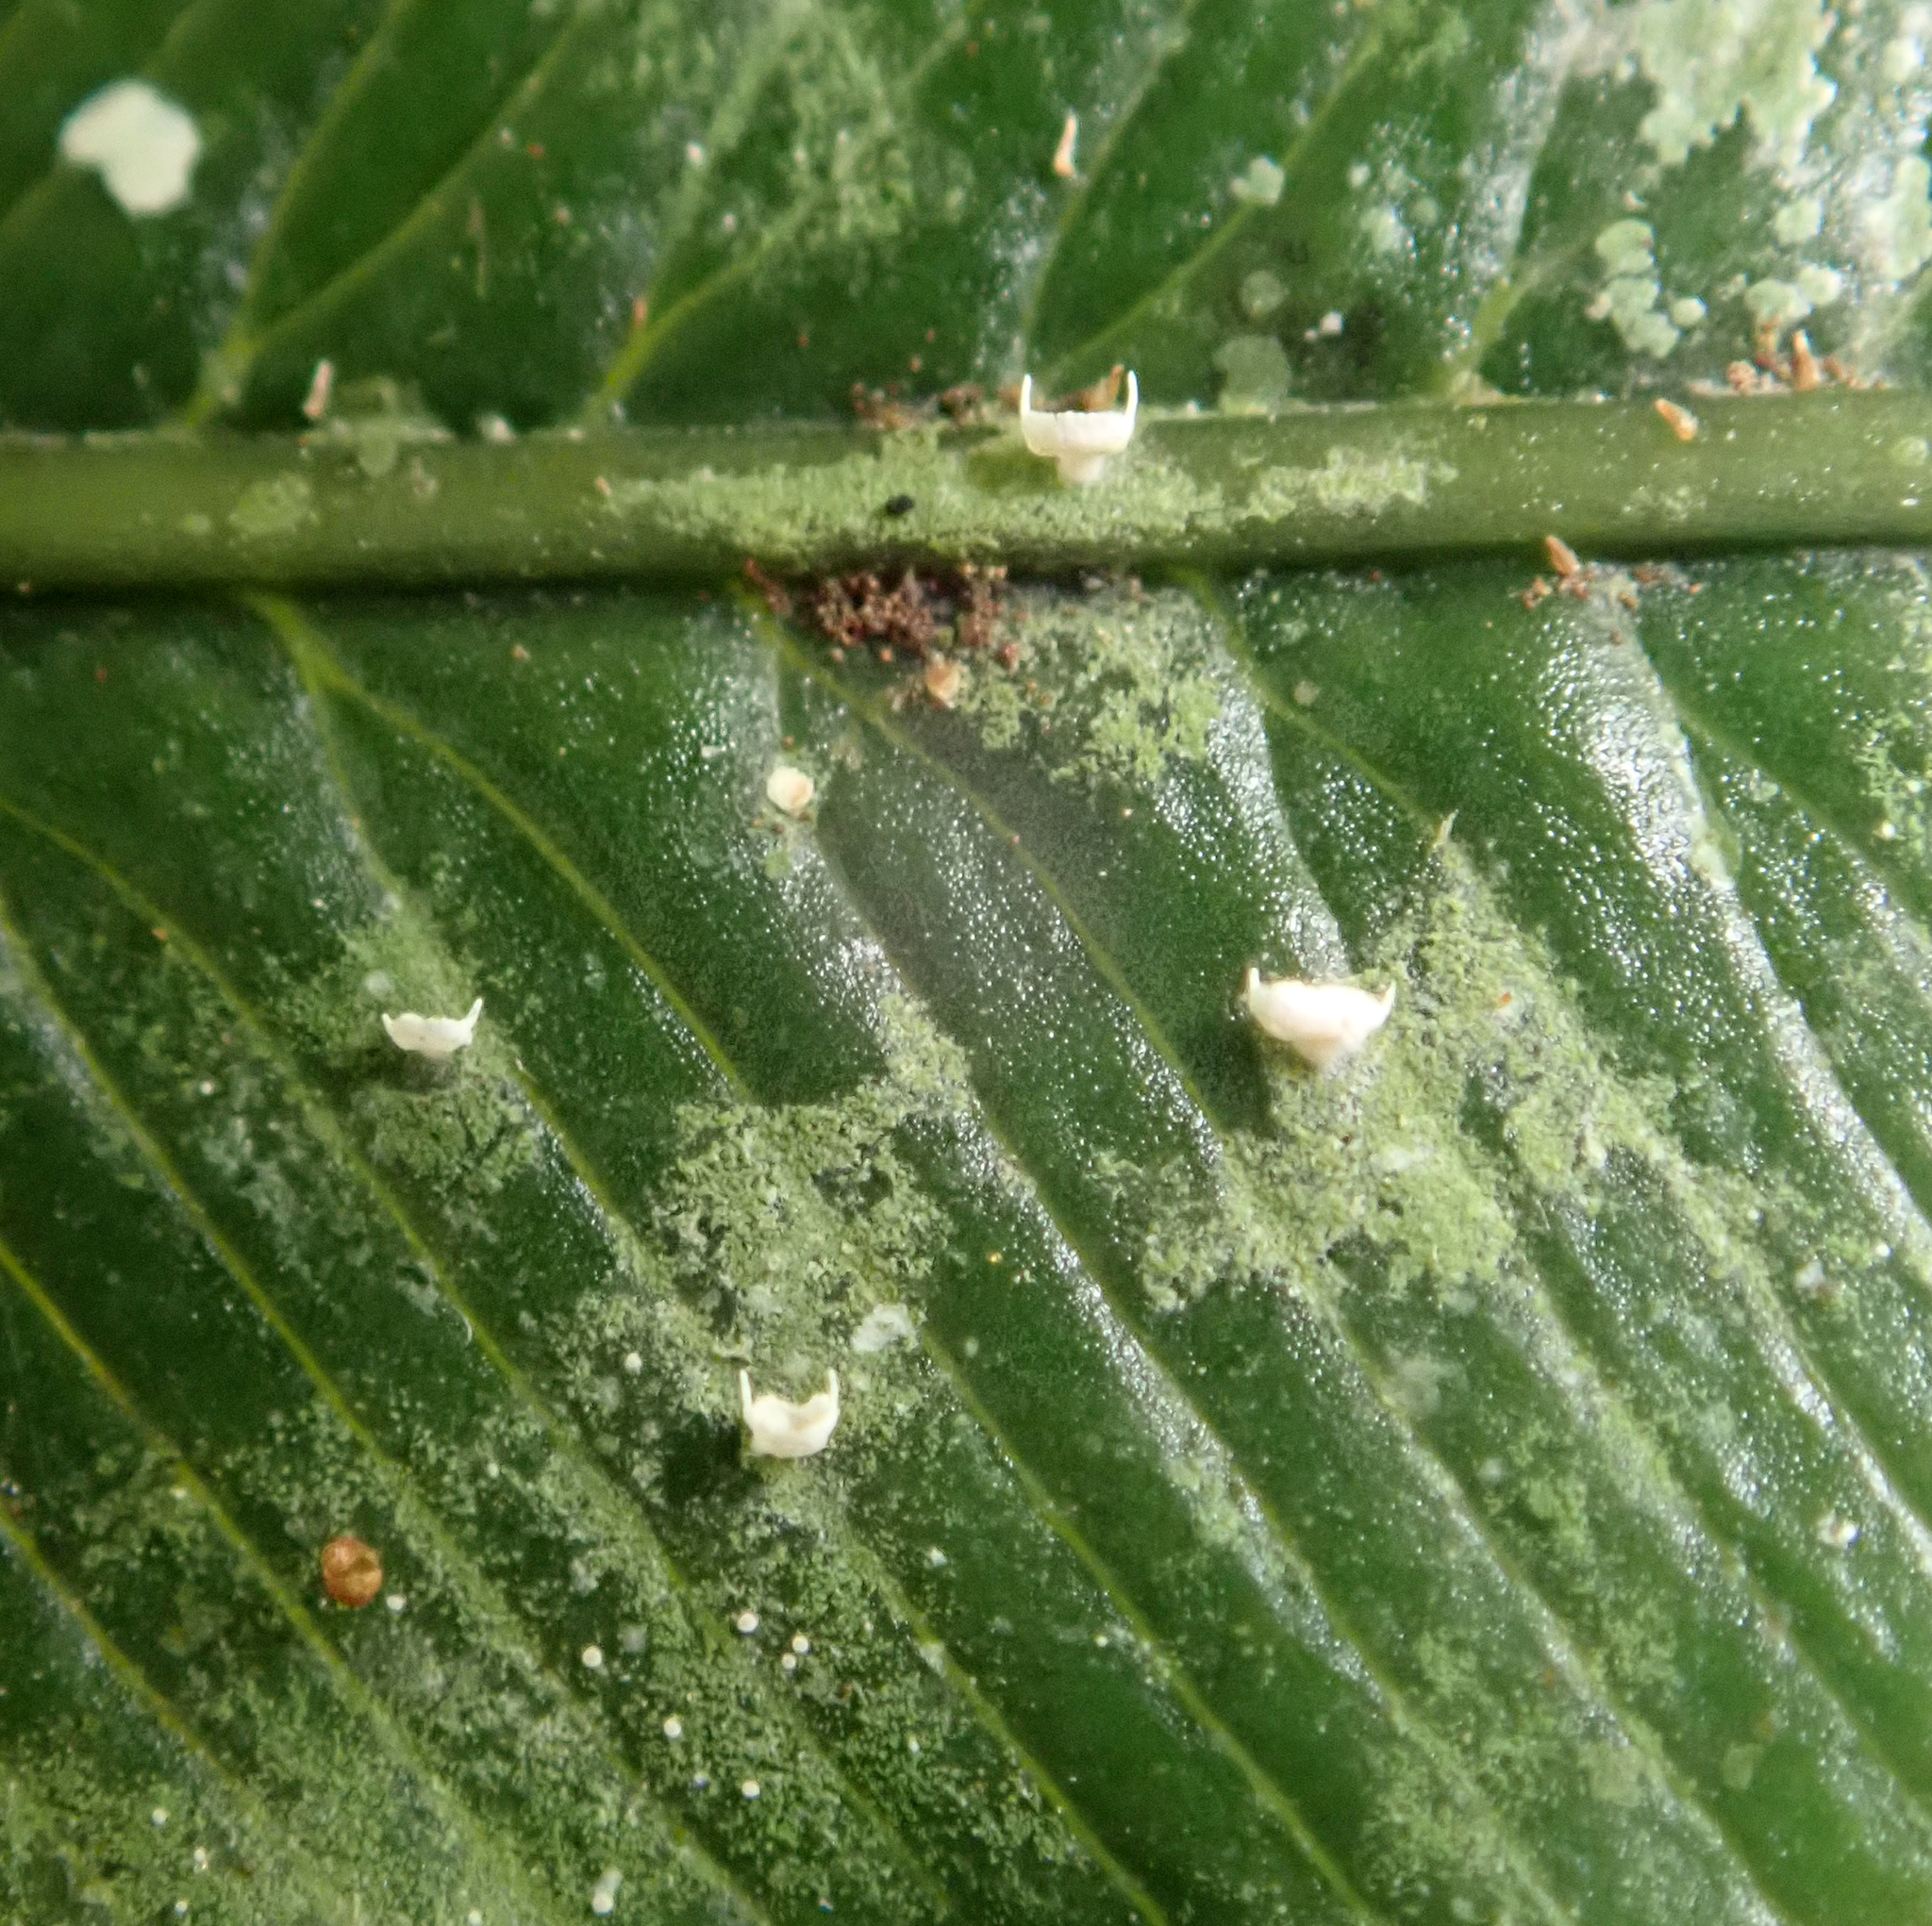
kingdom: Fungi
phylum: Ascomycota
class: Lecanoromycetes
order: Lecanorales
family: Byssolomataceae
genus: Badimiella
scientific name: Badimiella pteridophila
